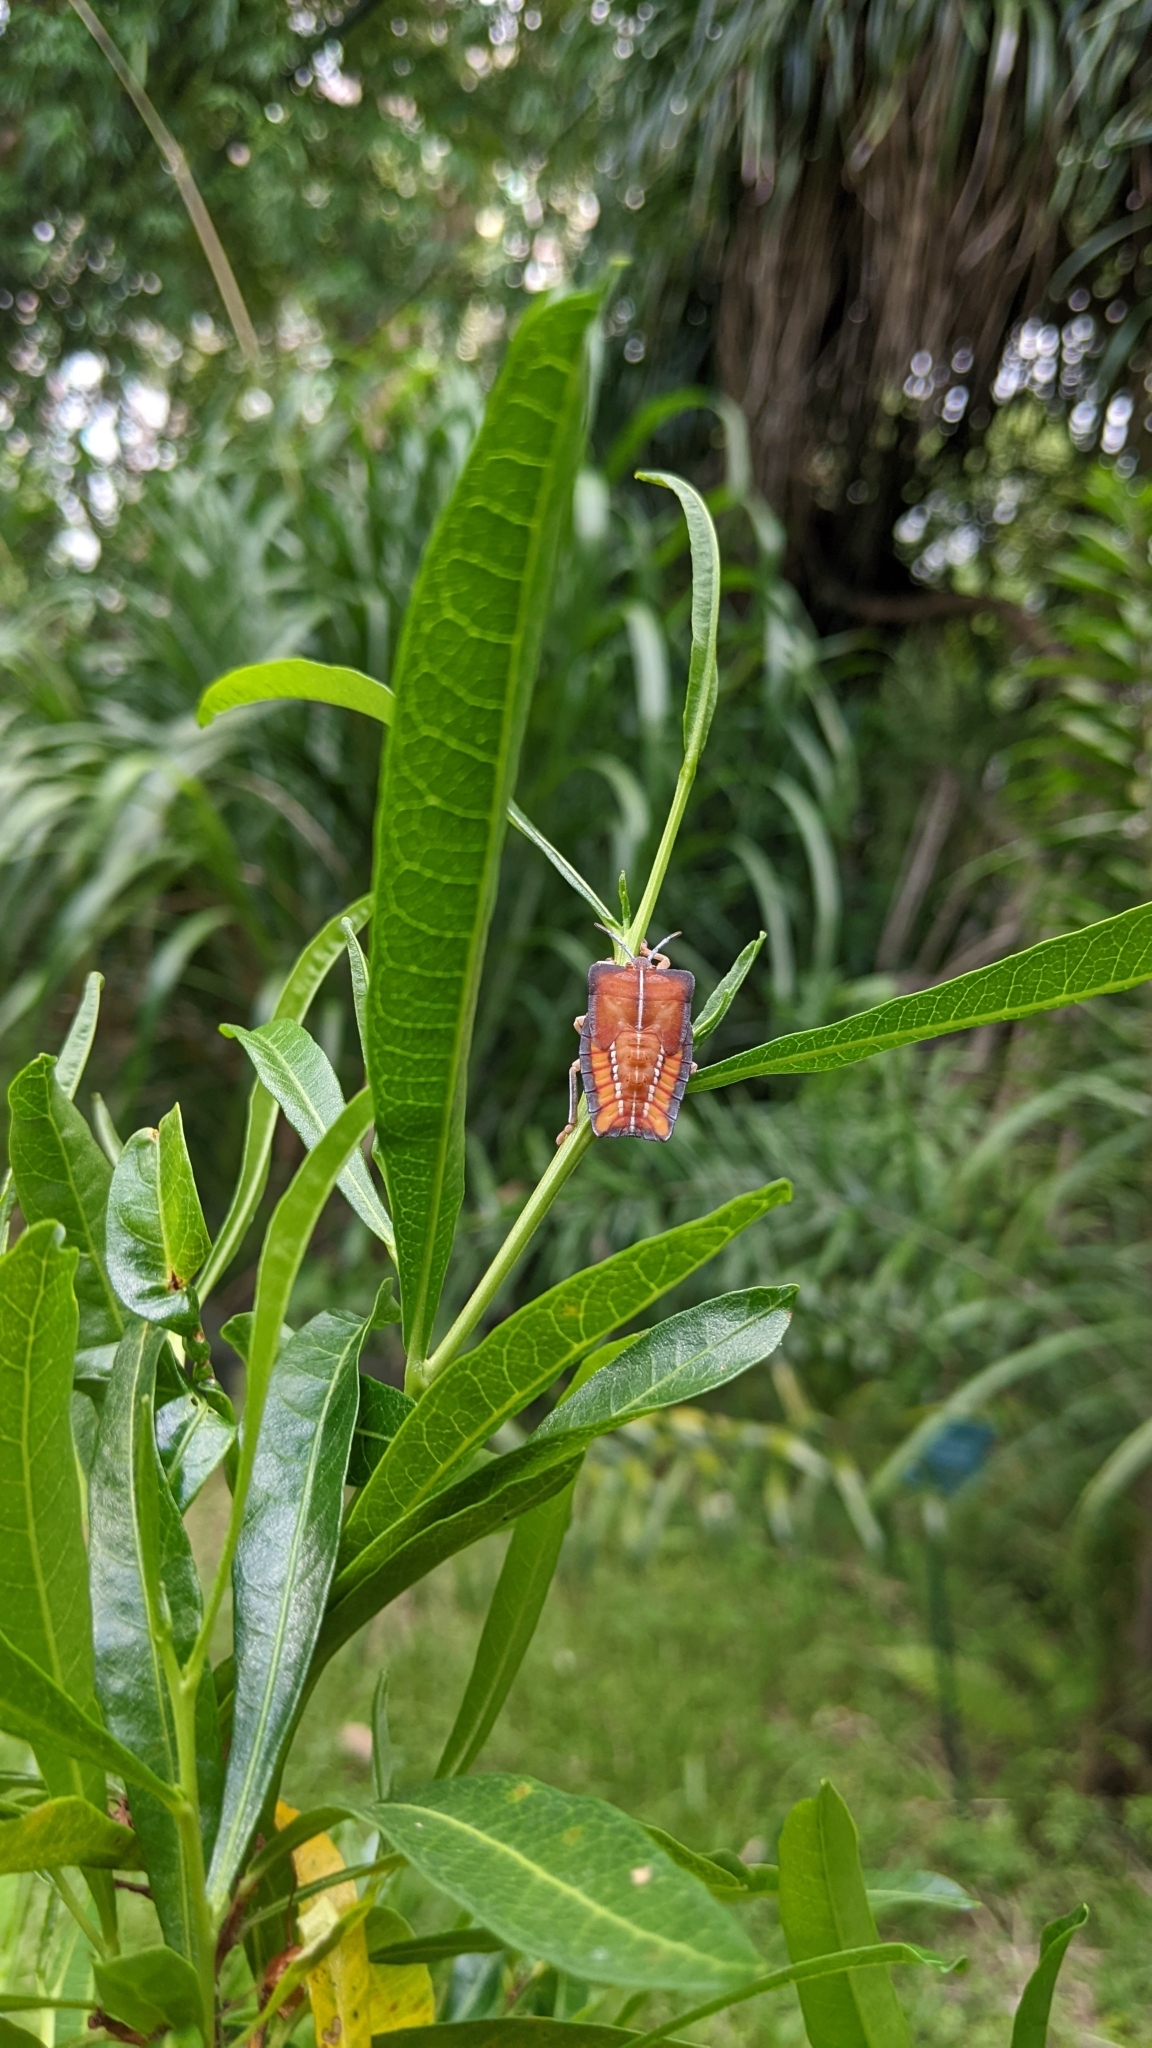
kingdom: Animalia
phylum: Arthropoda
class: Insecta
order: Hemiptera
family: Tessaratomidae
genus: Tessaratoma
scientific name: Tessaratoma papillosa
